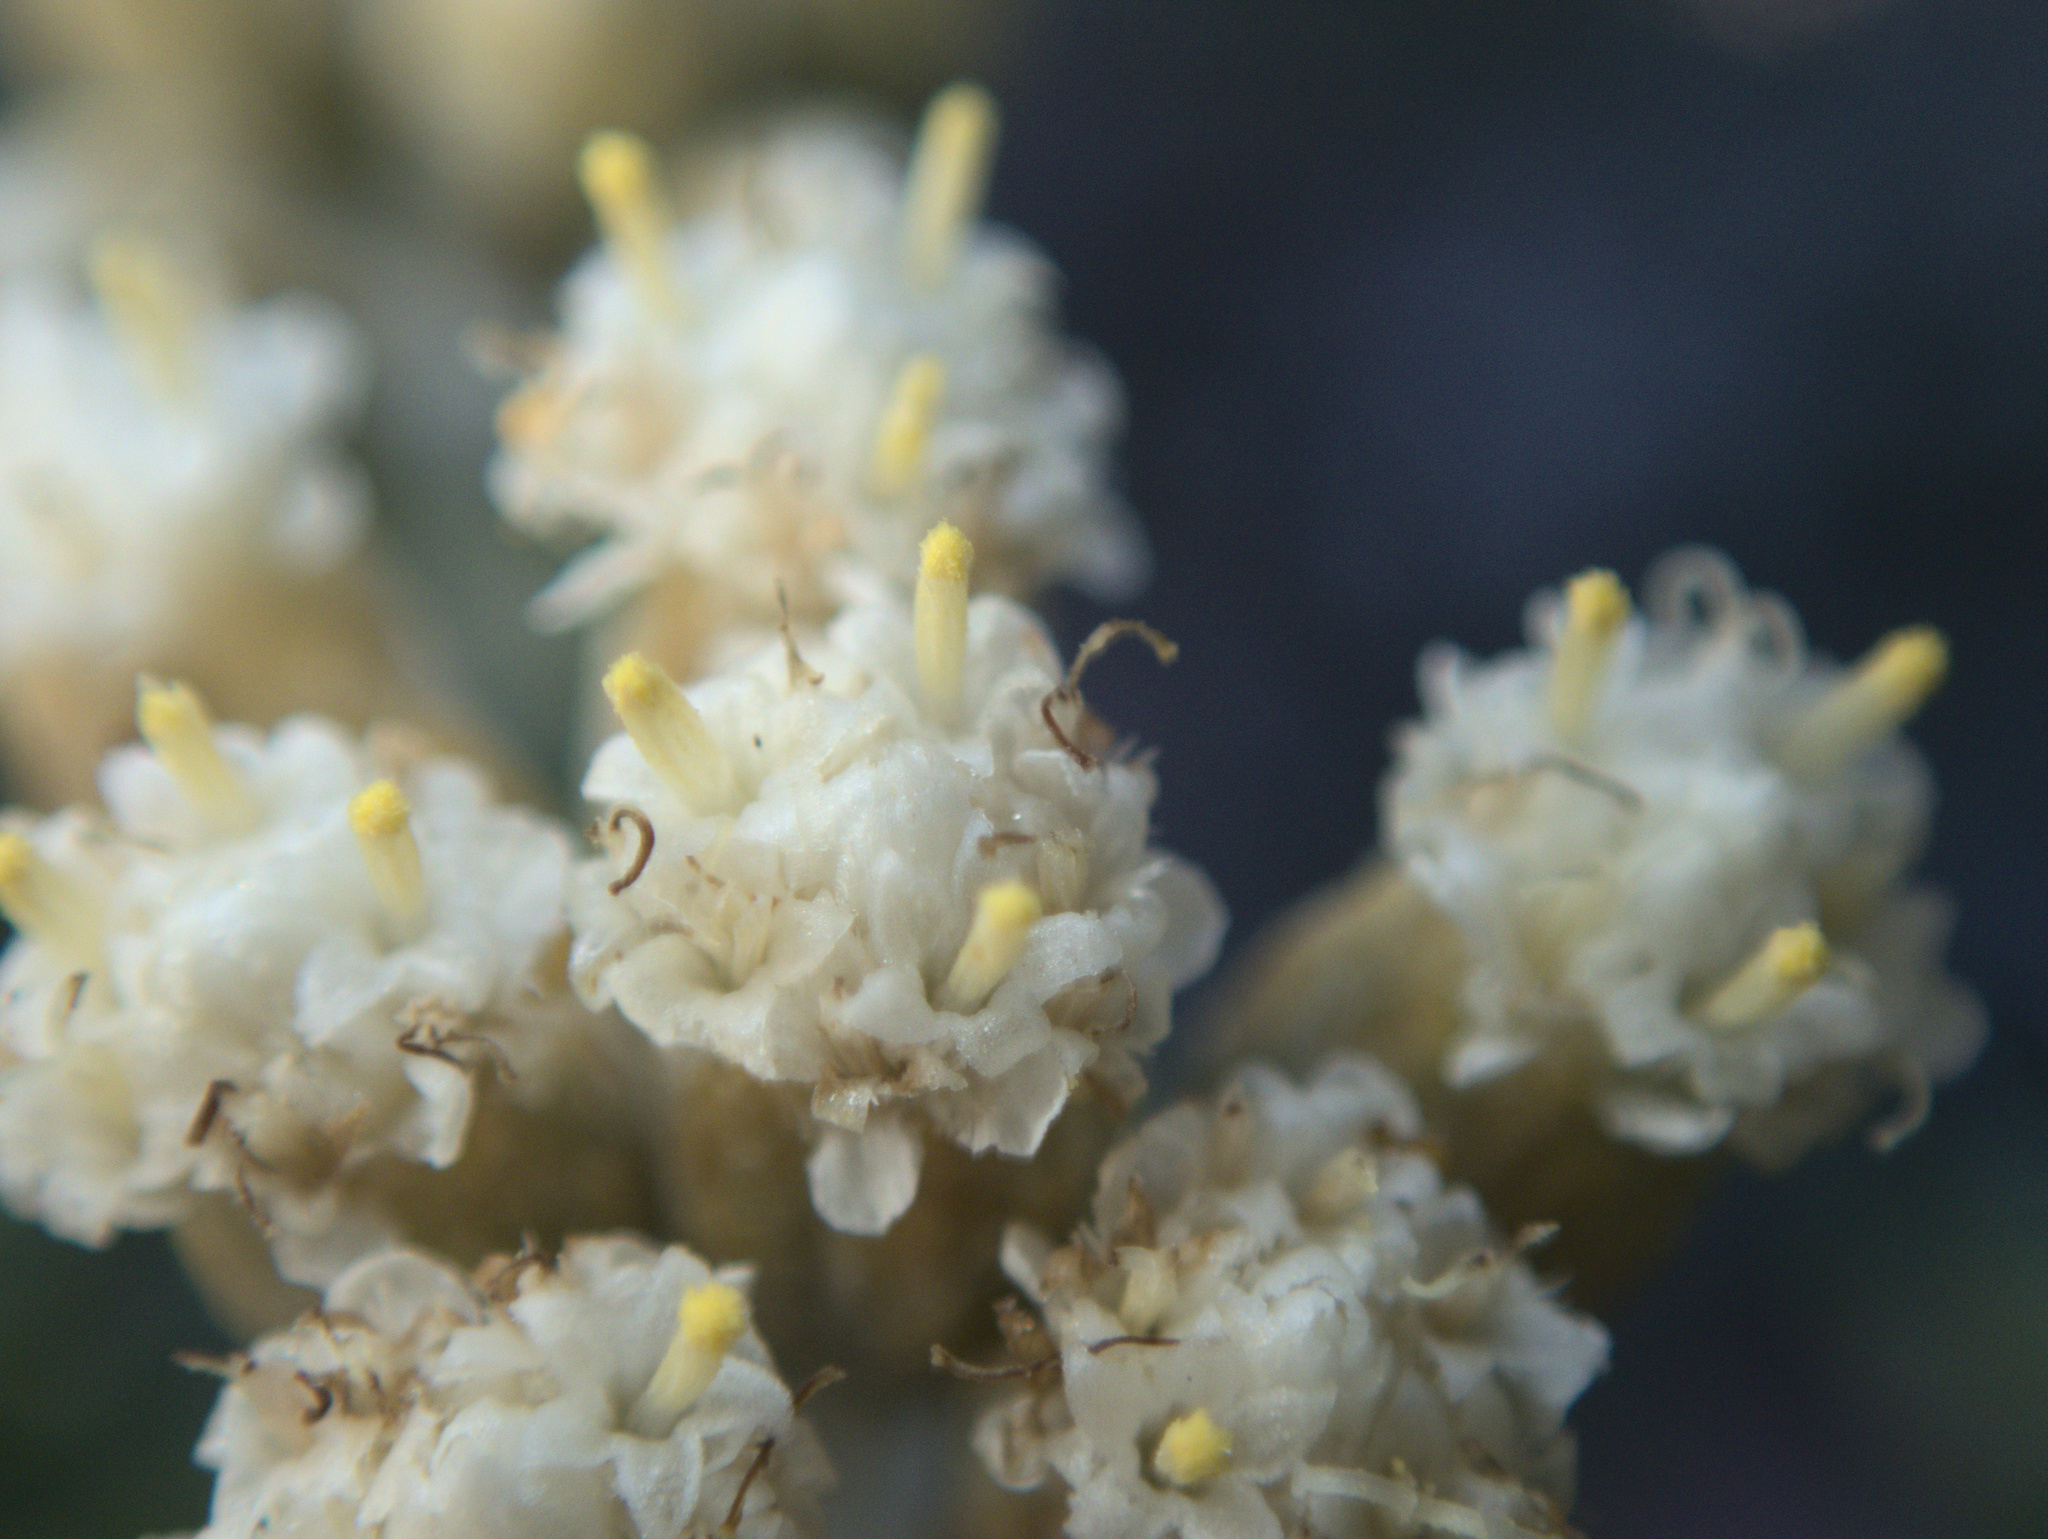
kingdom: Plantae
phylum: Tracheophyta
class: Magnoliopsida
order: Asterales
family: Asteraceae
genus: Ozothamnus
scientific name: Ozothamnus leptophyllus
